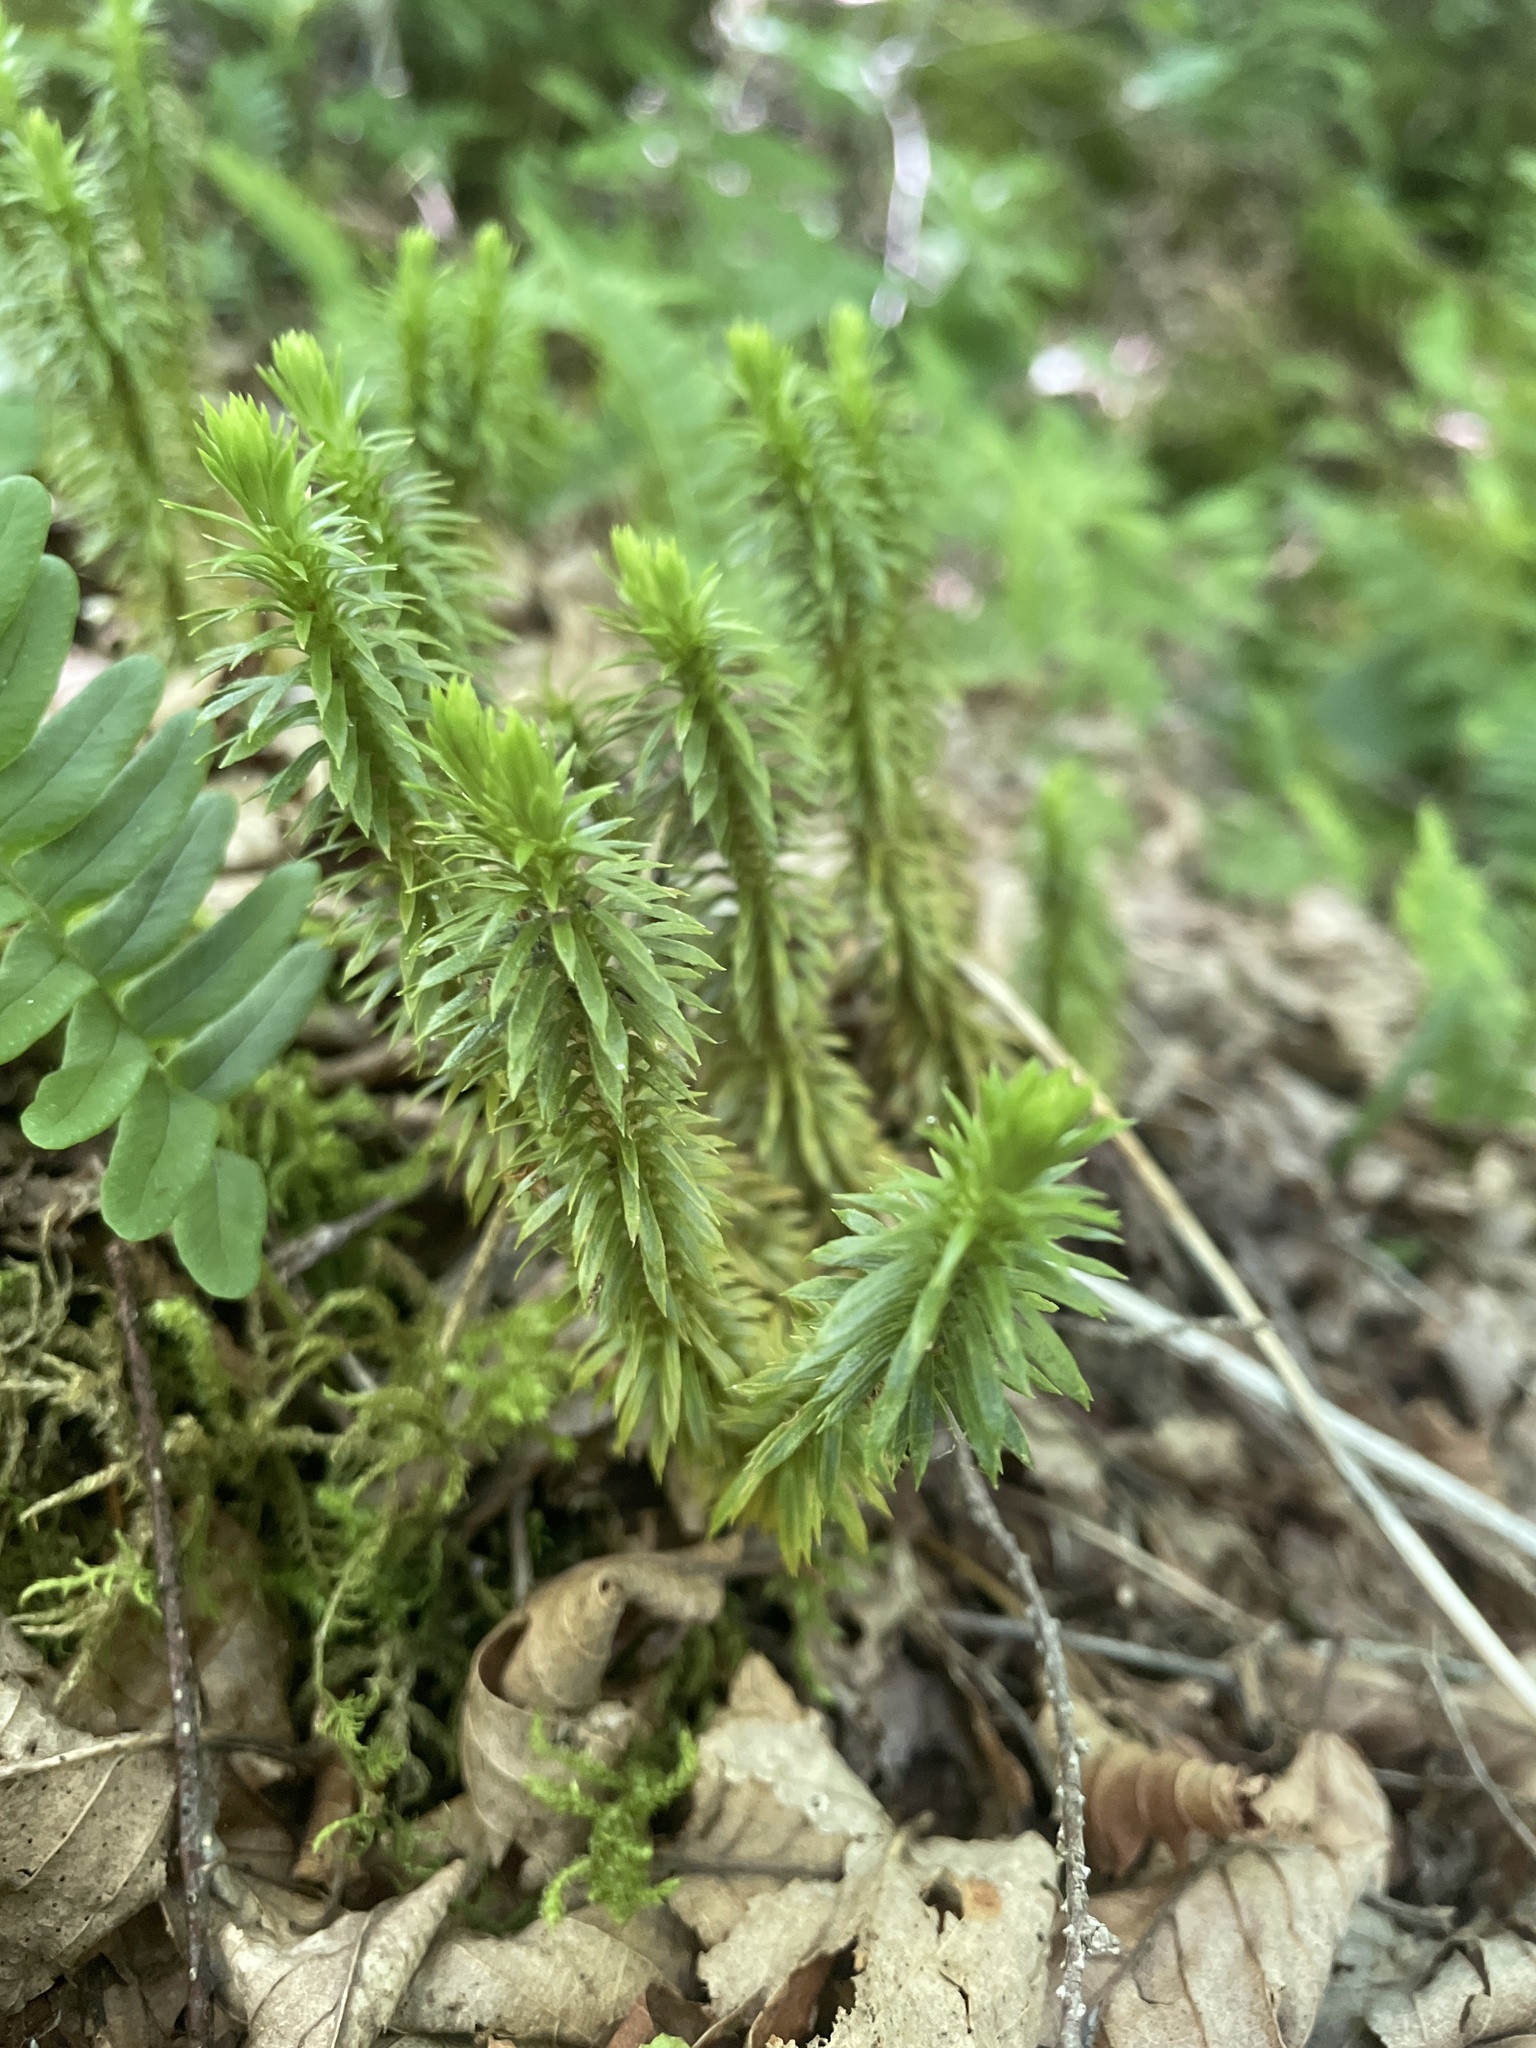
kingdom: Plantae
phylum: Tracheophyta
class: Lycopodiopsida
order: Lycopodiales
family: Lycopodiaceae
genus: Huperzia
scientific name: Huperzia lucidula
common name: Shining clubmoss
